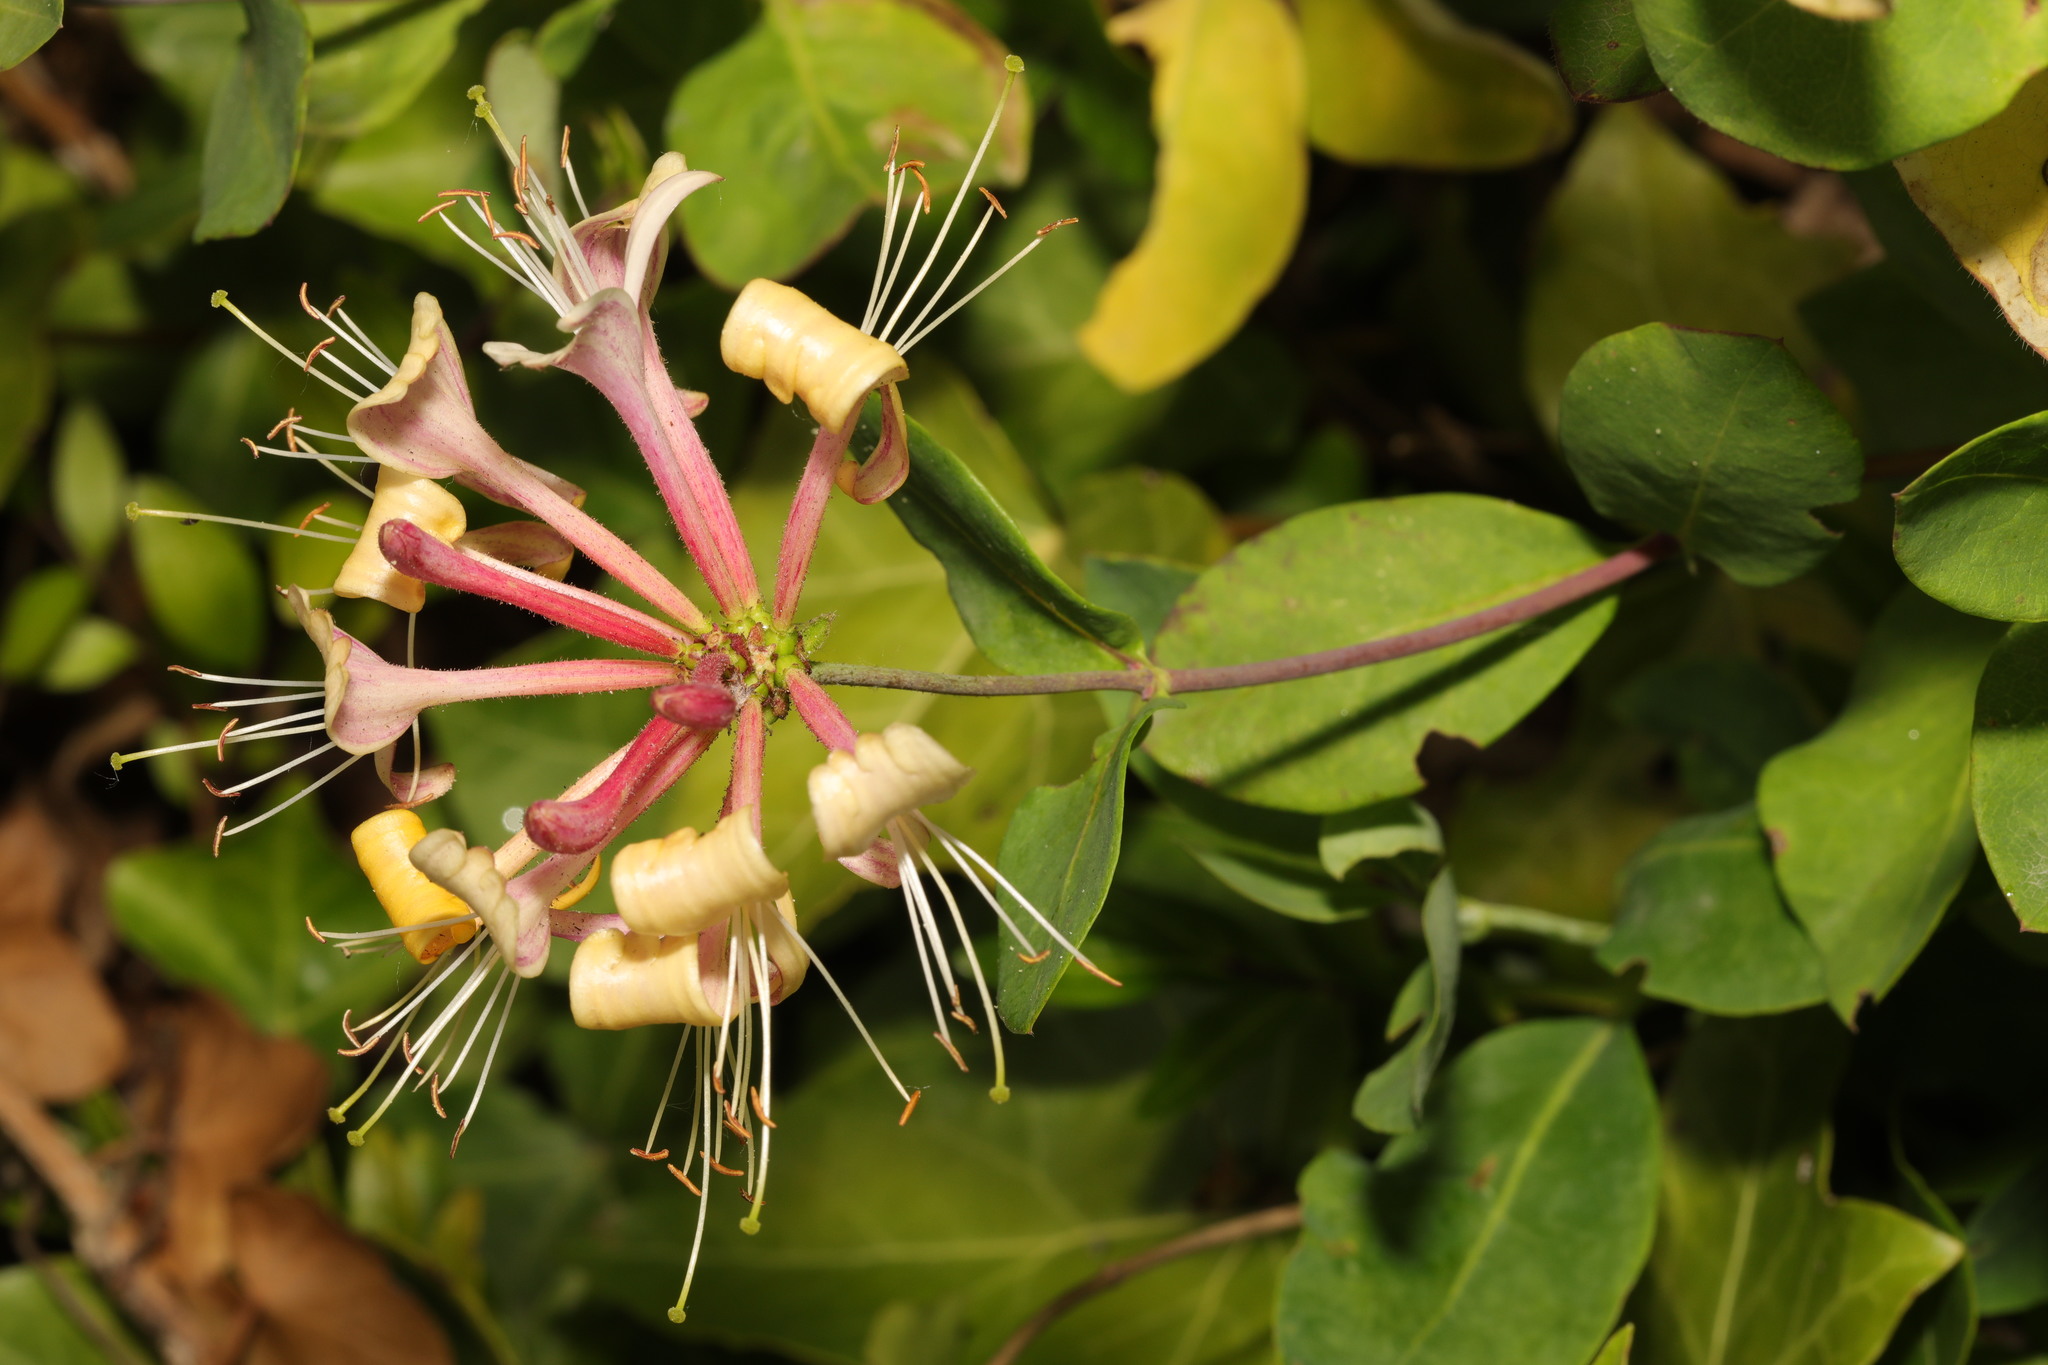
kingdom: Plantae
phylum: Tracheophyta
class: Magnoliopsida
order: Dipsacales
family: Caprifoliaceae
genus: Lonicera
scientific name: Lonicera periclymenum
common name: European honeysuckle
